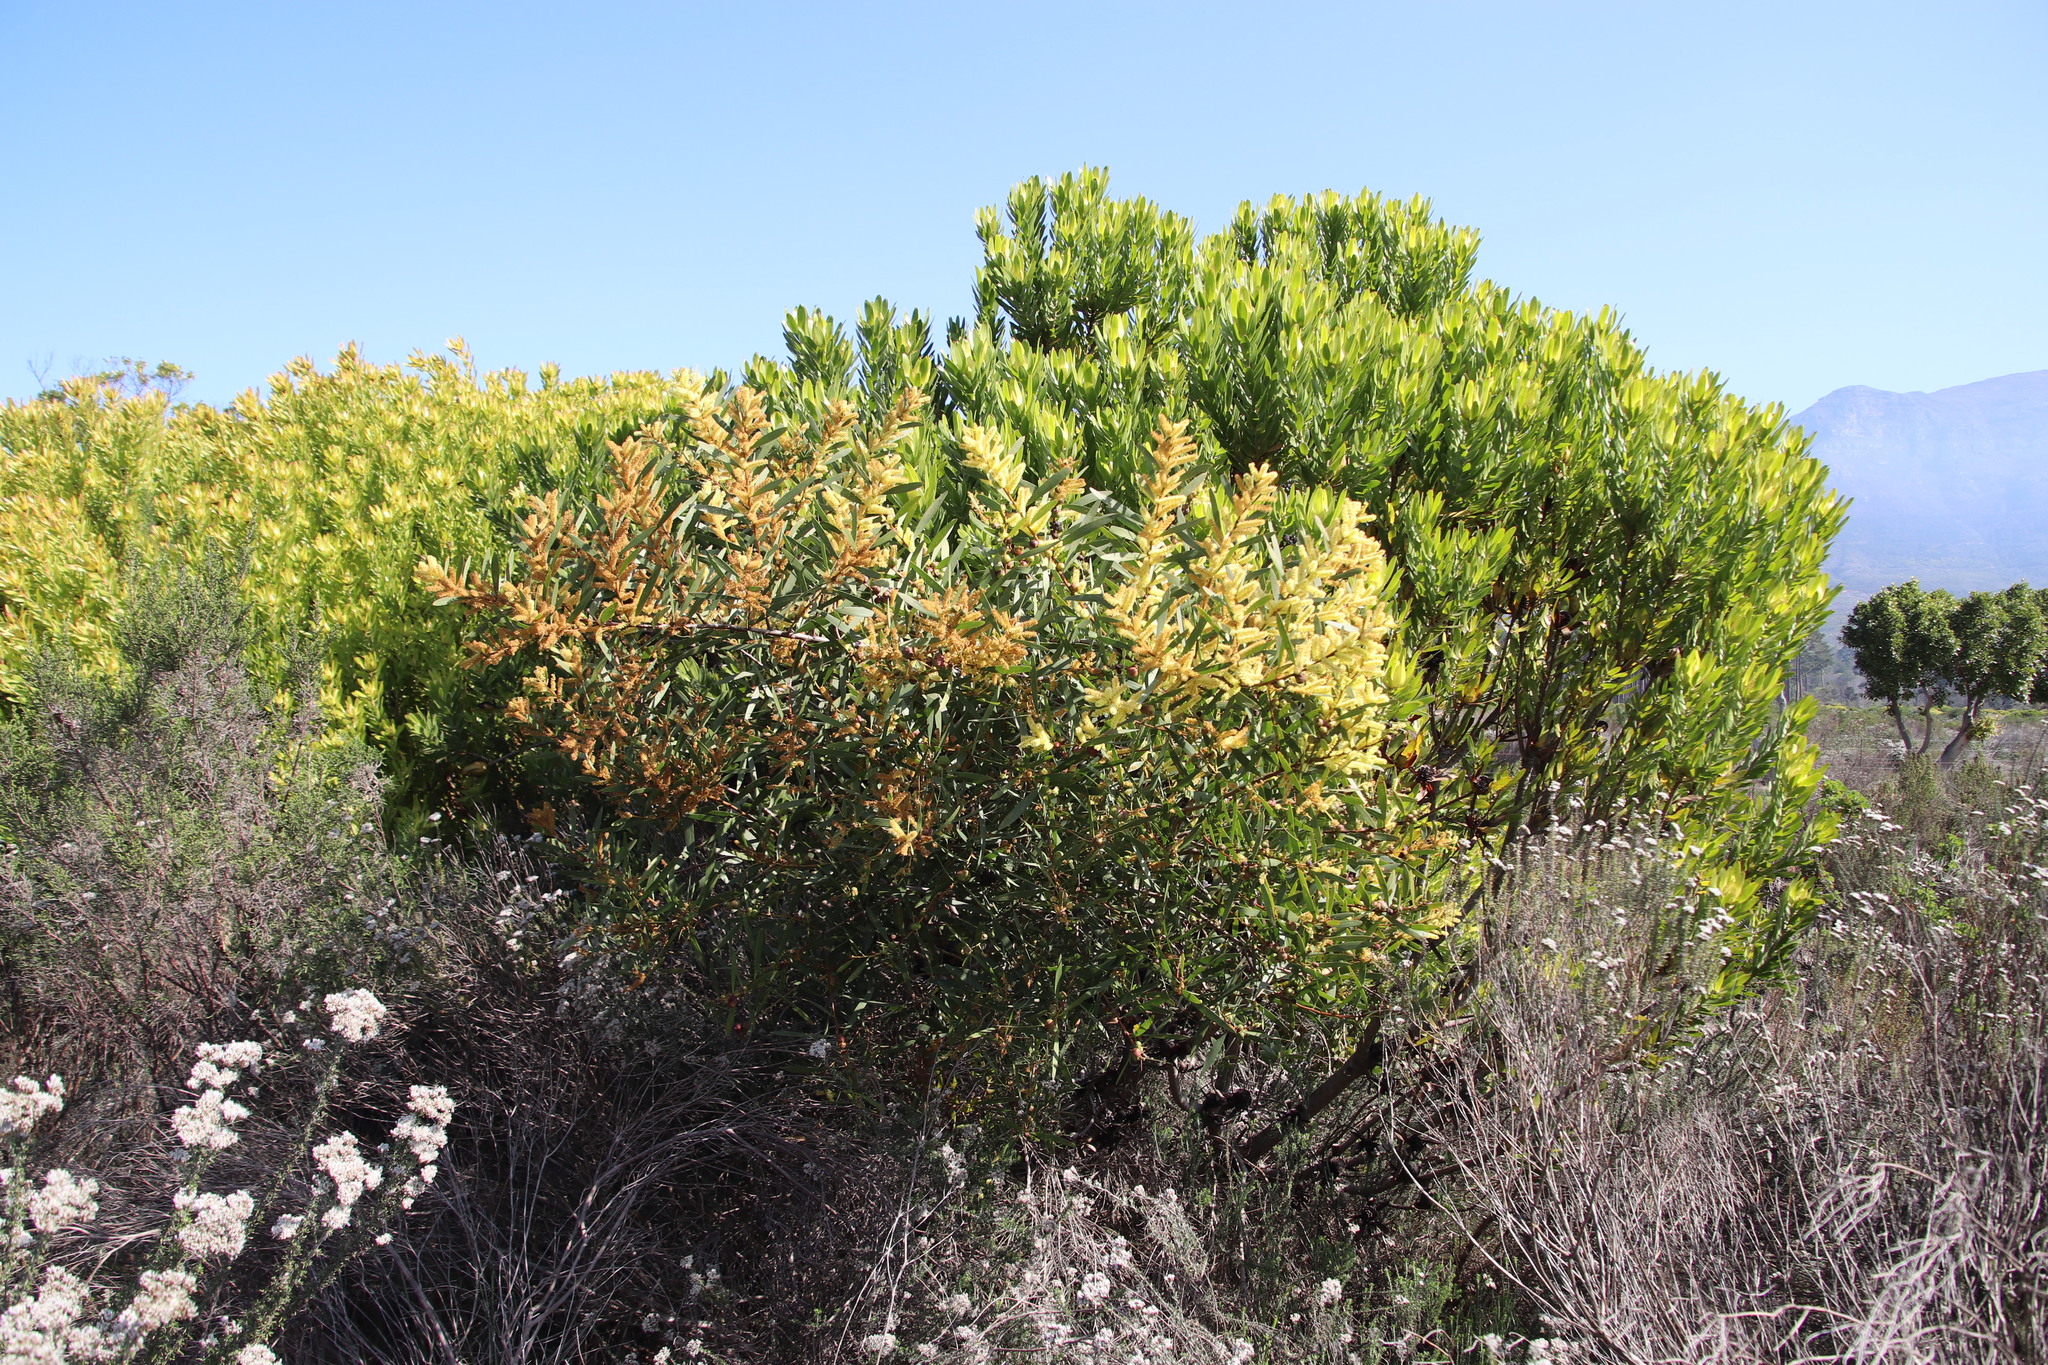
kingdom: Plantae
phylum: Tracheophyta
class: Magnoliopsida
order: Fabales
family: Fabaceae
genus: Acacia
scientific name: Acacia longifolia
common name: Sydney golden wattle
